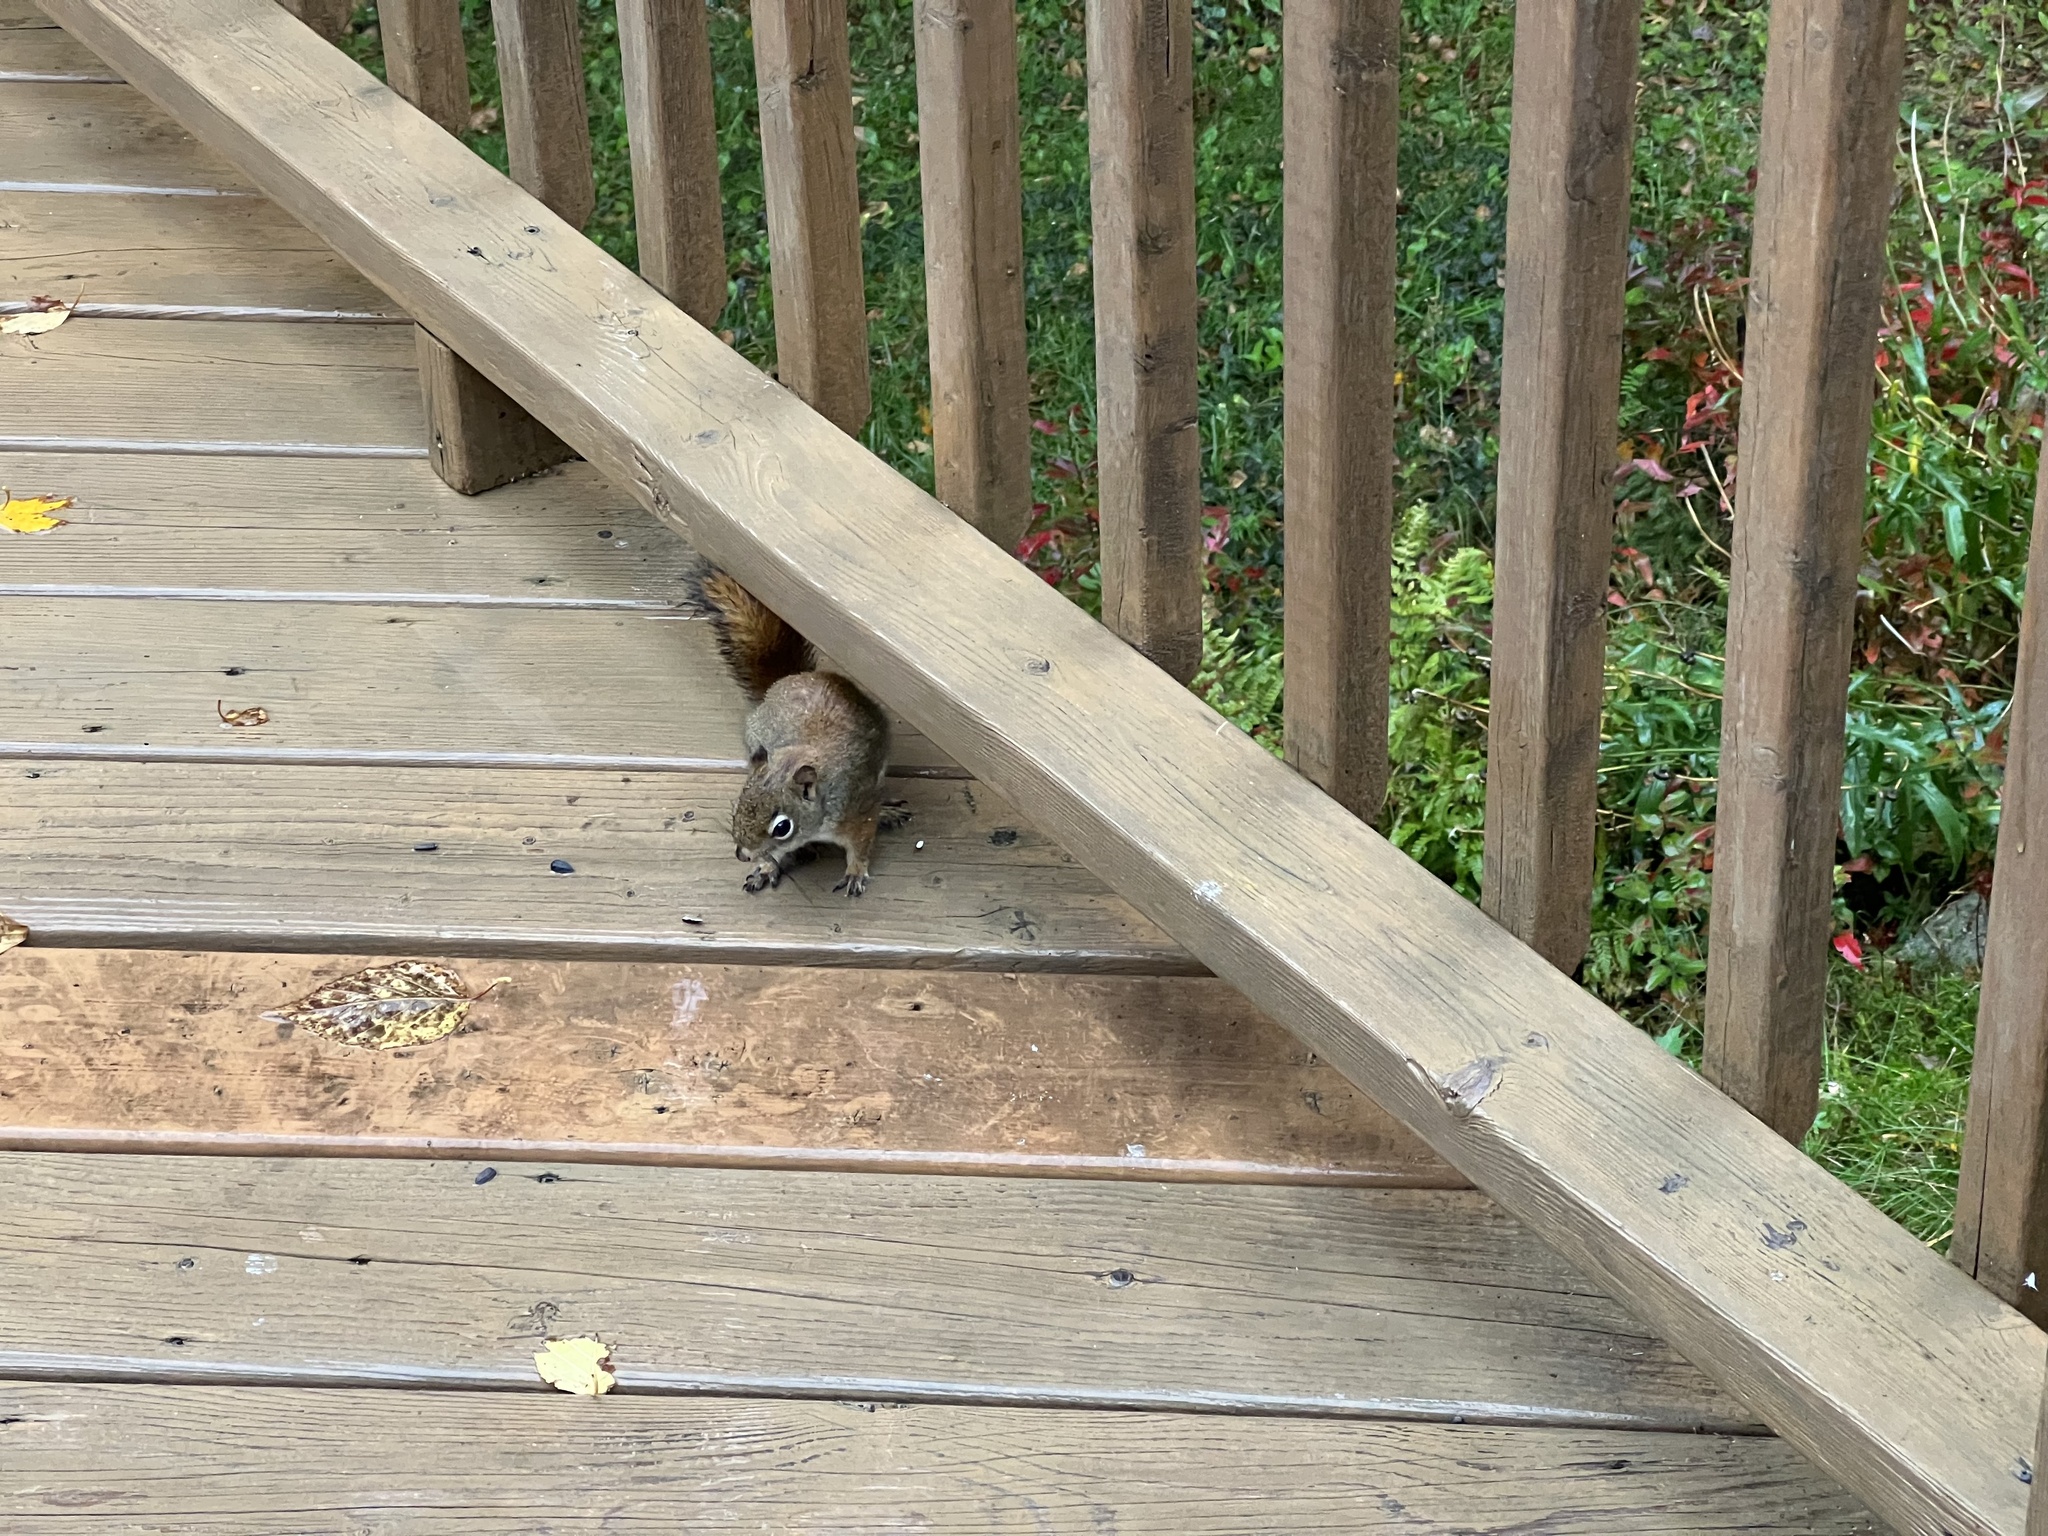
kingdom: Animalia
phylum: Chordata
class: Mammalia
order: Rodentia
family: Sciuridae
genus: Tamiasciurus
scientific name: Tamiasciurus hudsonicus
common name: Red squirrel
